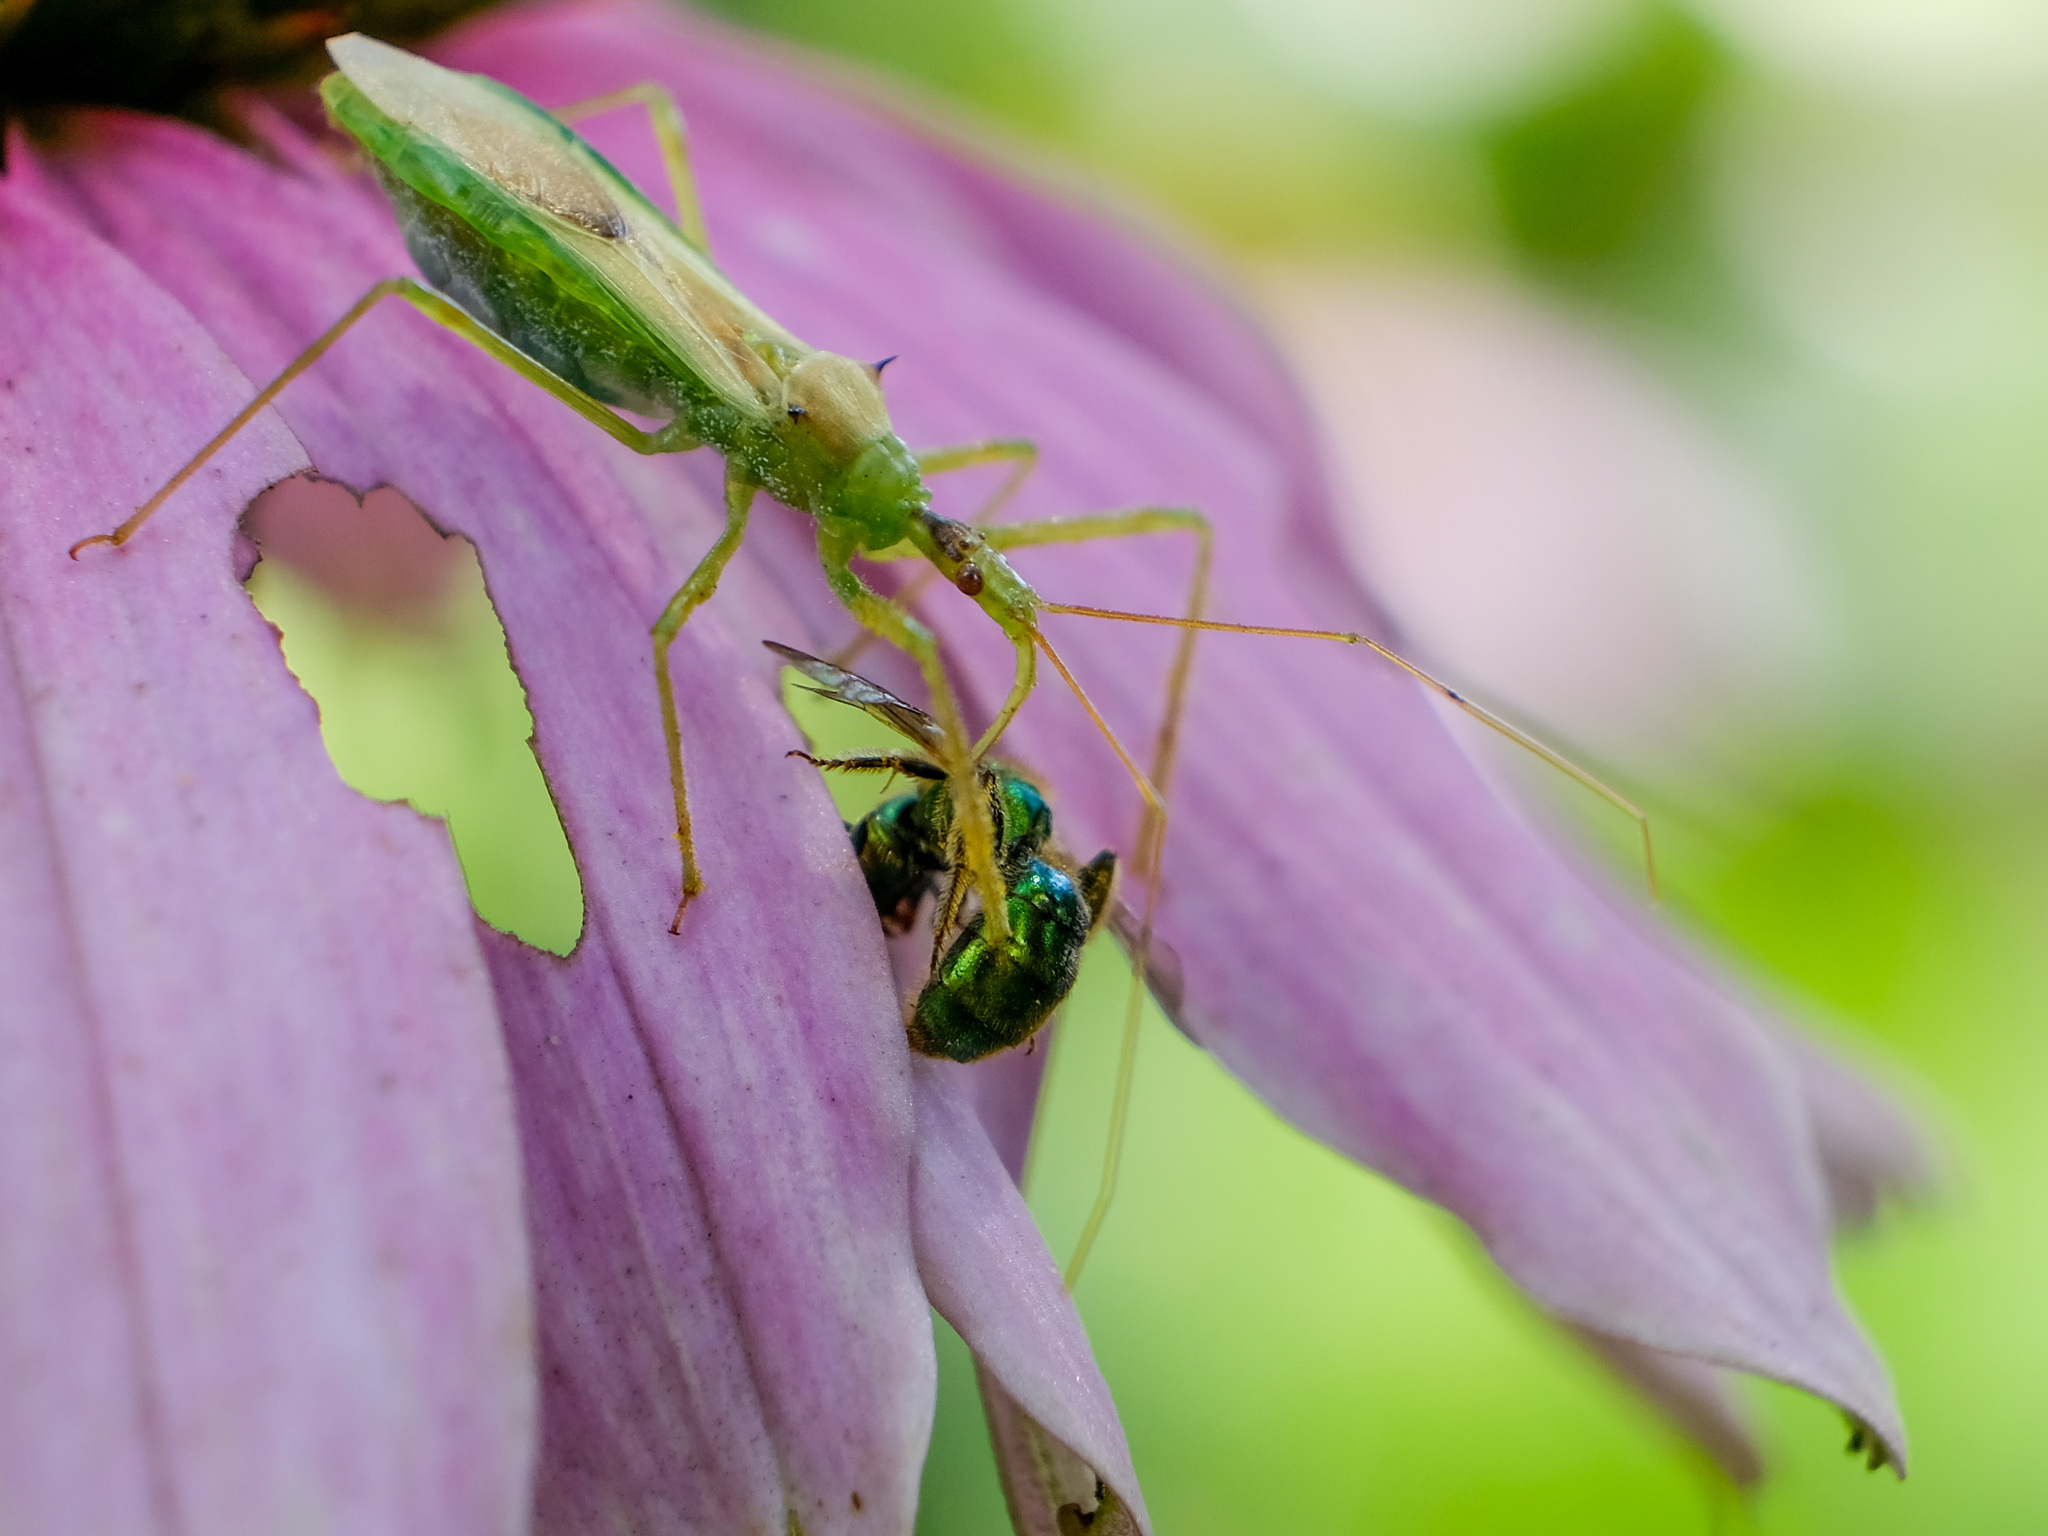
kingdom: Animalia
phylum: Arthropoda
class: Insecta
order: Hemiptera
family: Reduviidae
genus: Zelus
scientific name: Zelus luridus
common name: Pale green assassin bug
